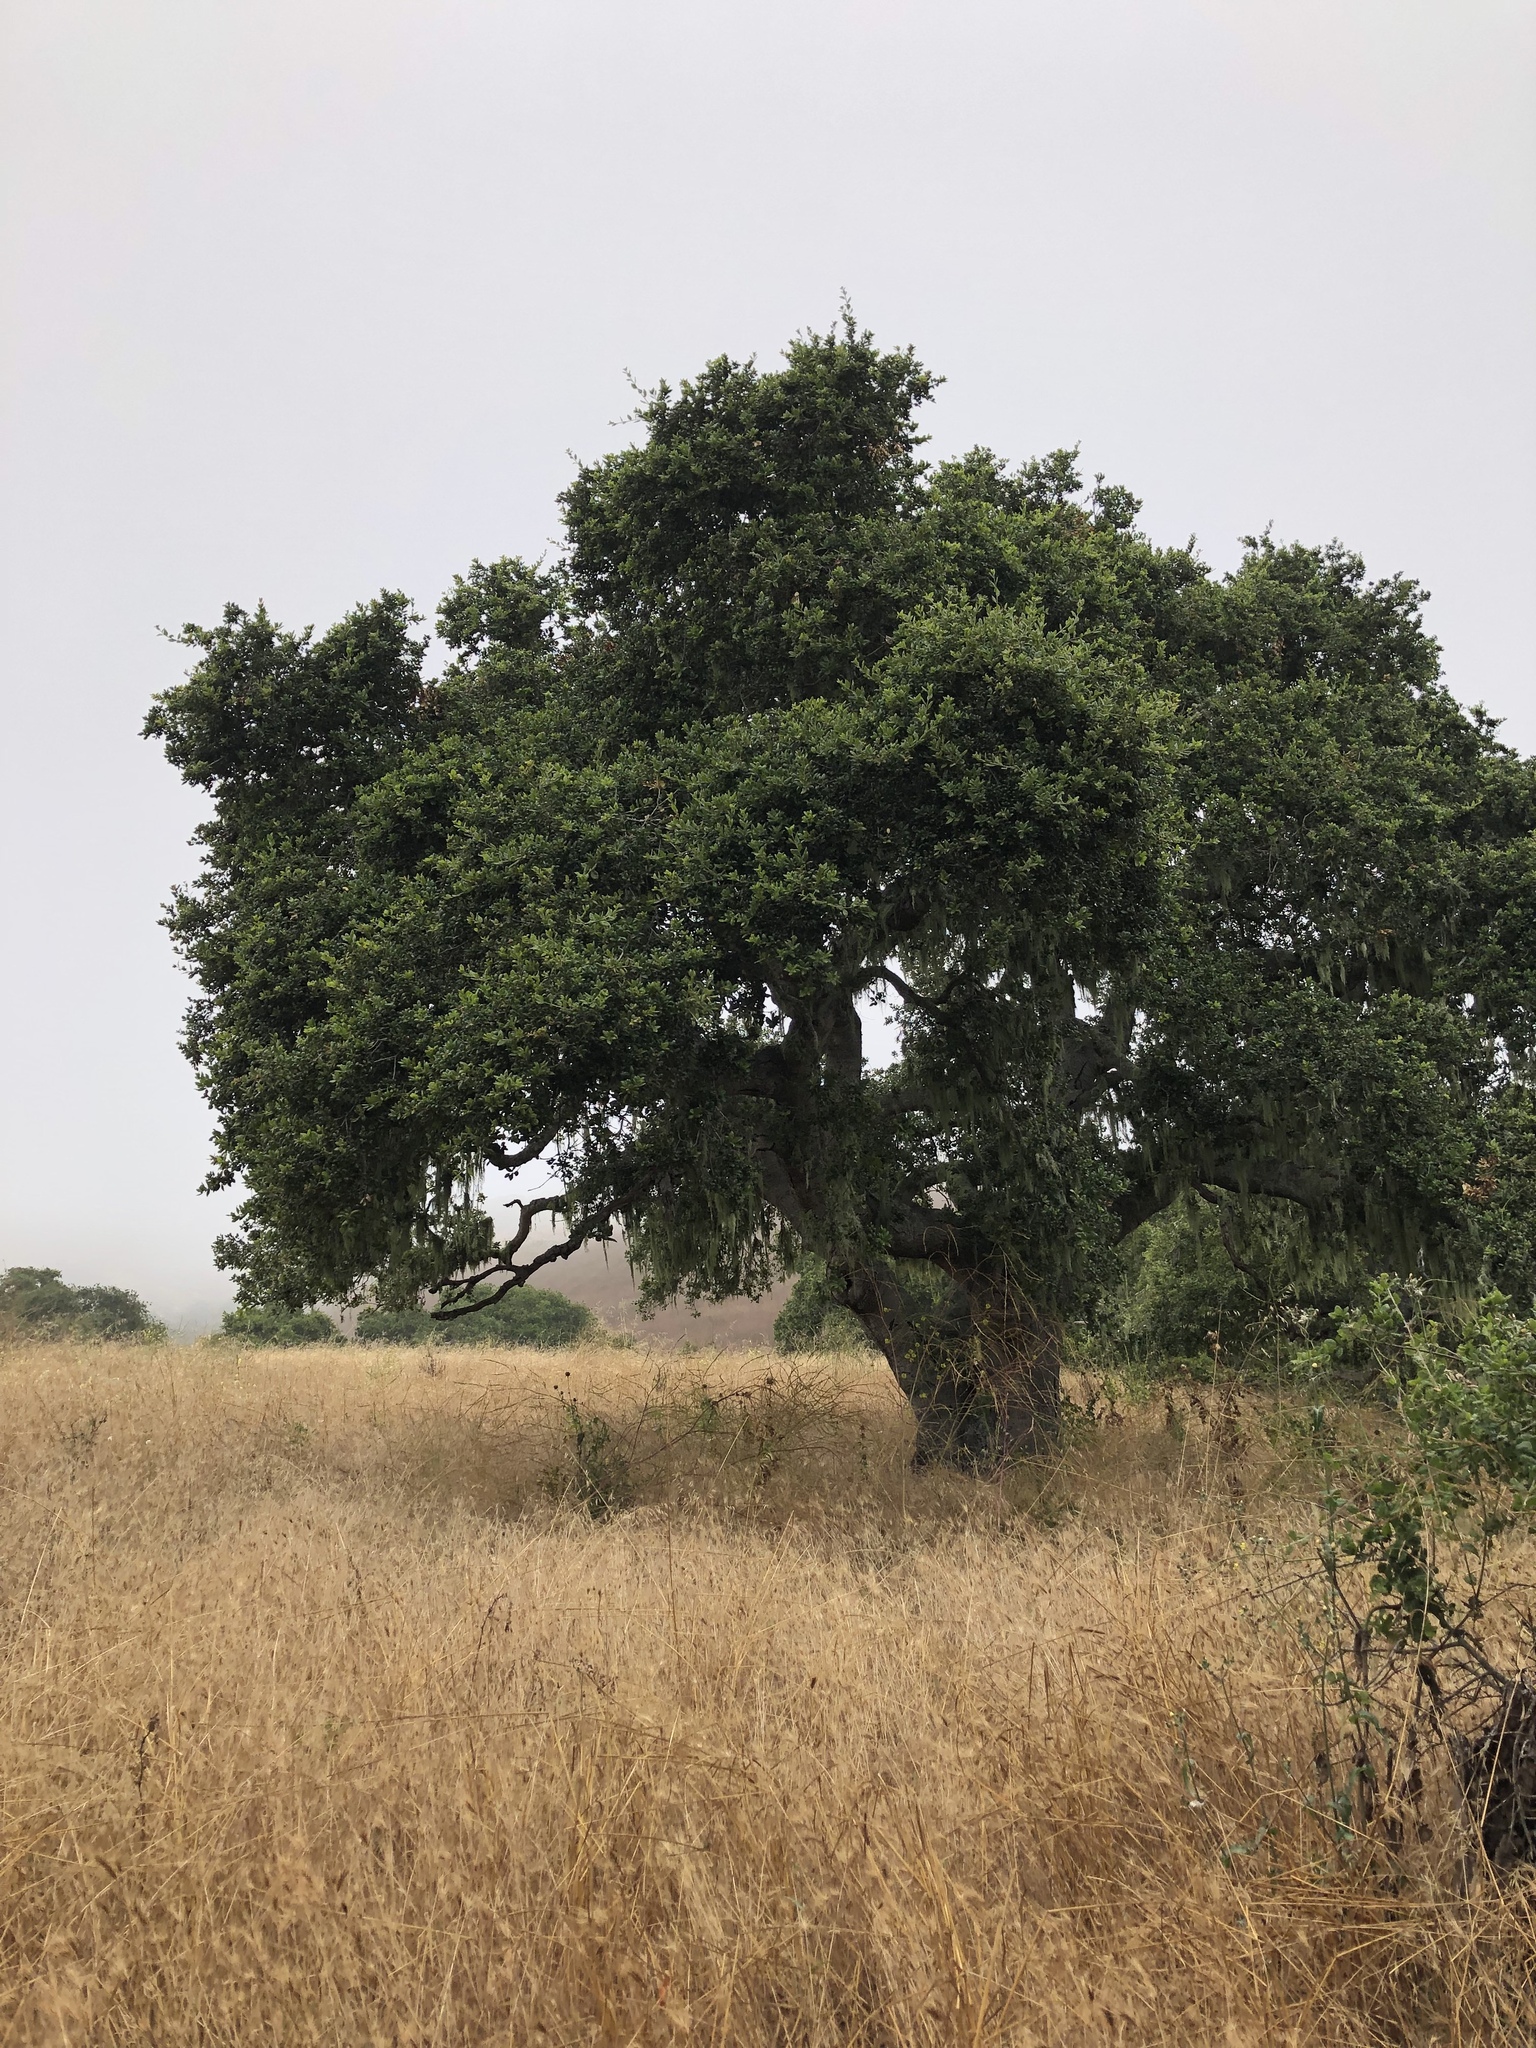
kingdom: Plantae
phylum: Tracheophyta
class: Magnoliopsida
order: Fagales
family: Fagaceae
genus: Quercus
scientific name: Quercus agrifolia
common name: California live oak
